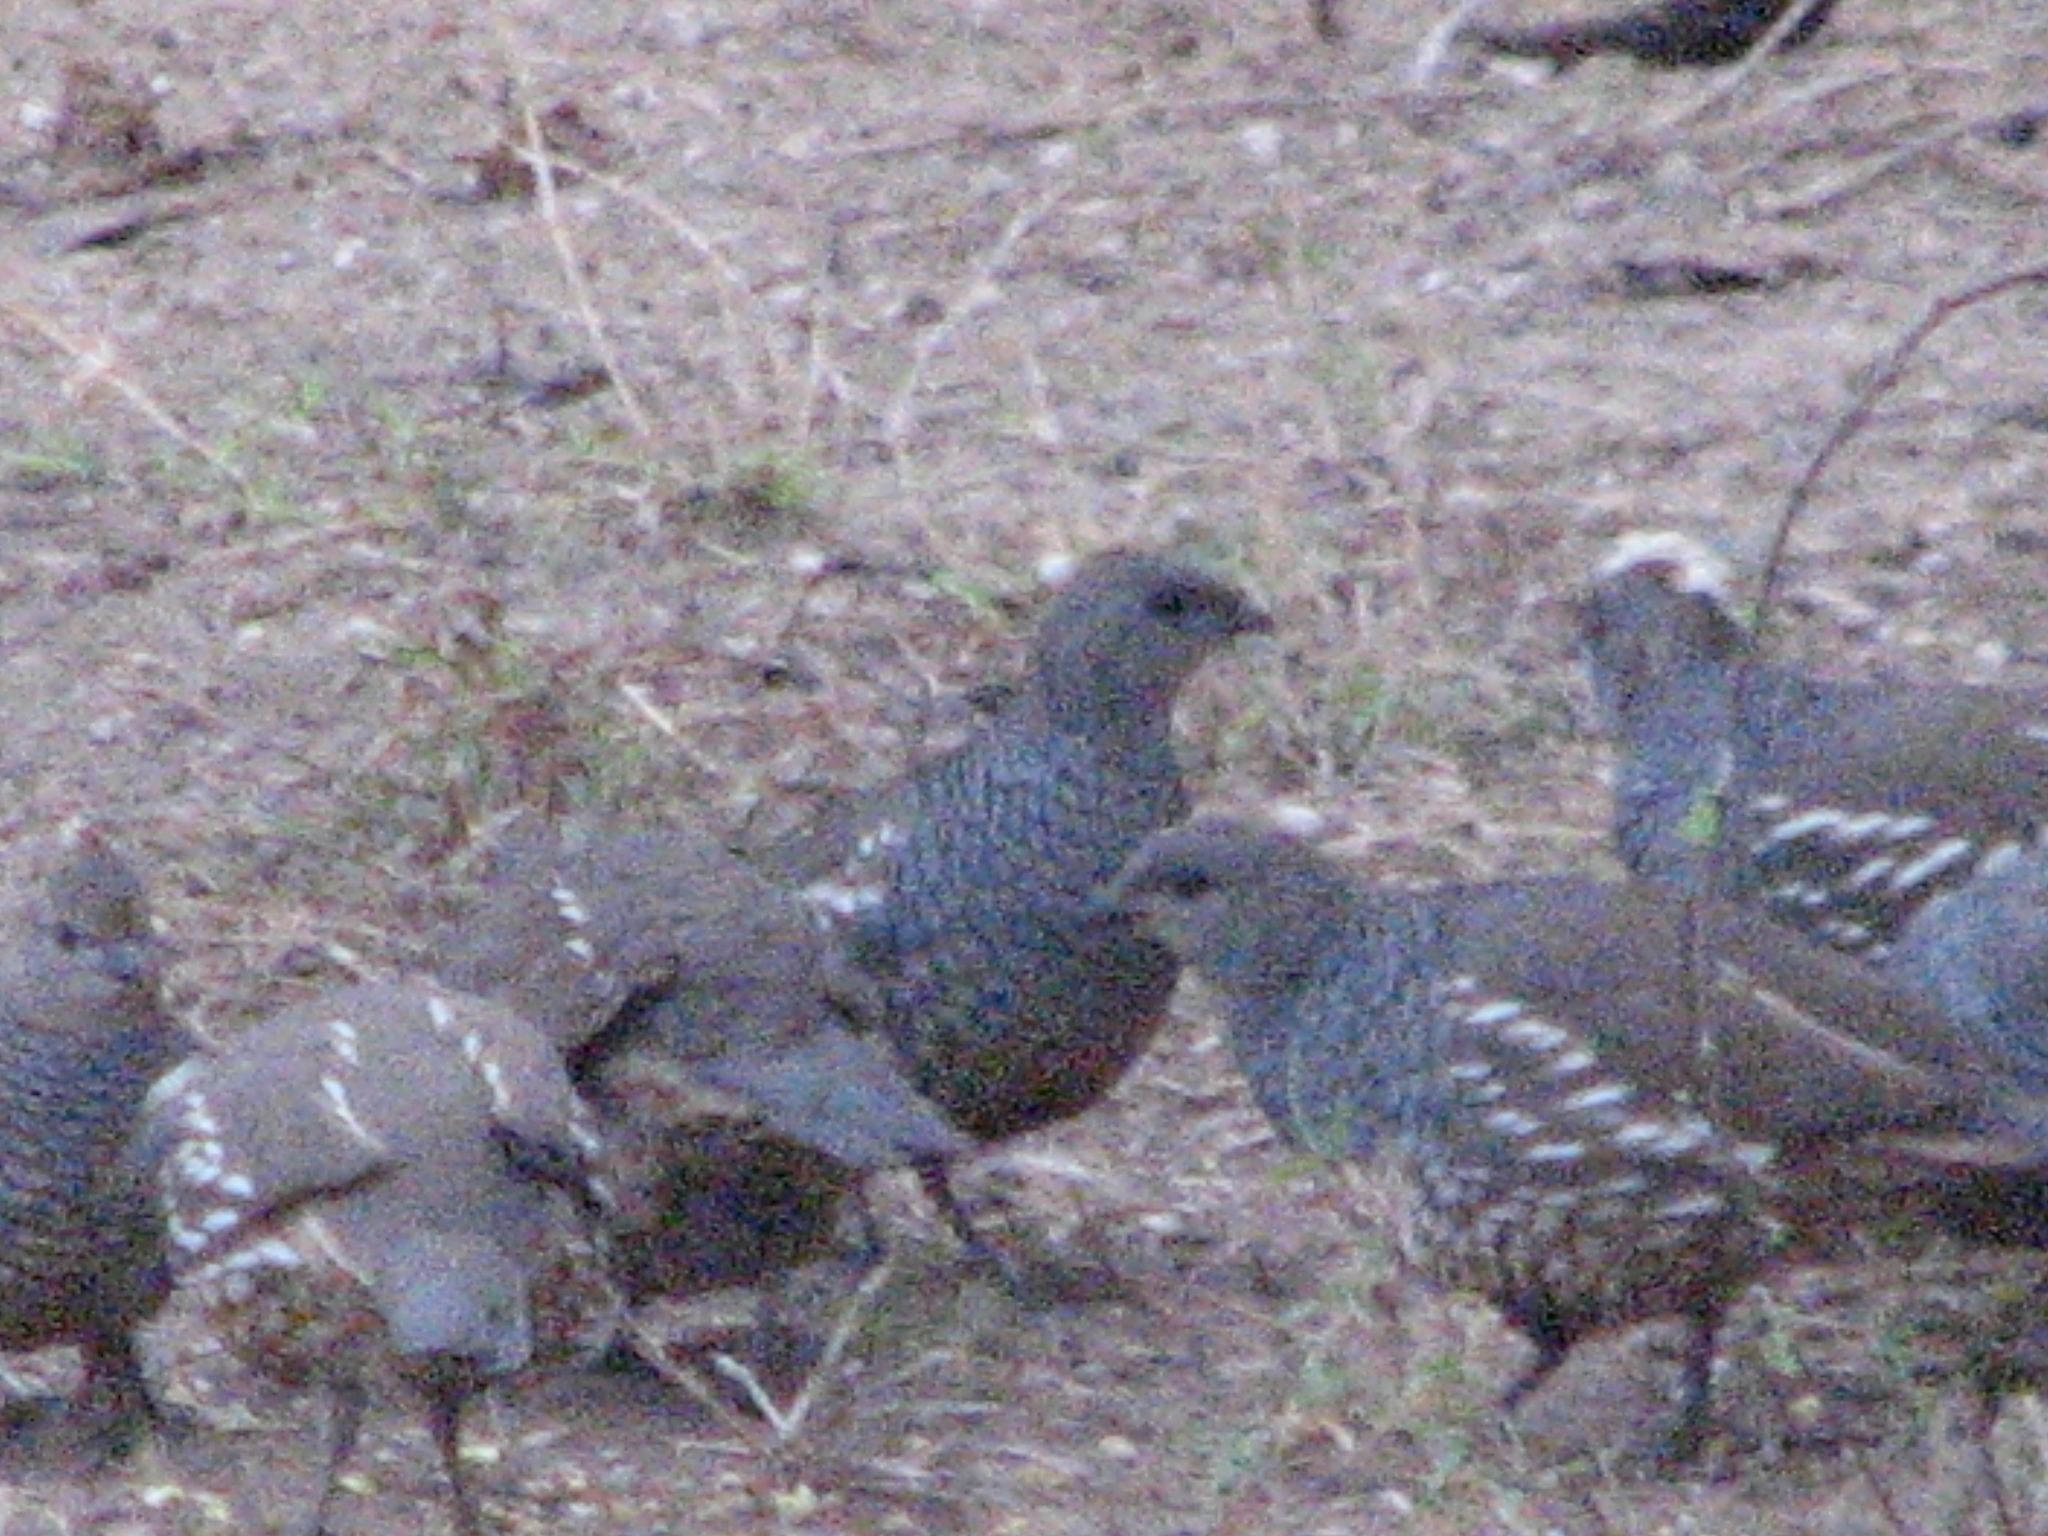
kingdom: Animalia
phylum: Chordata
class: Aves
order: Galliformes
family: Odontophoridae
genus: Callipepla
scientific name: Callipepla squamata
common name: Scaled quail
